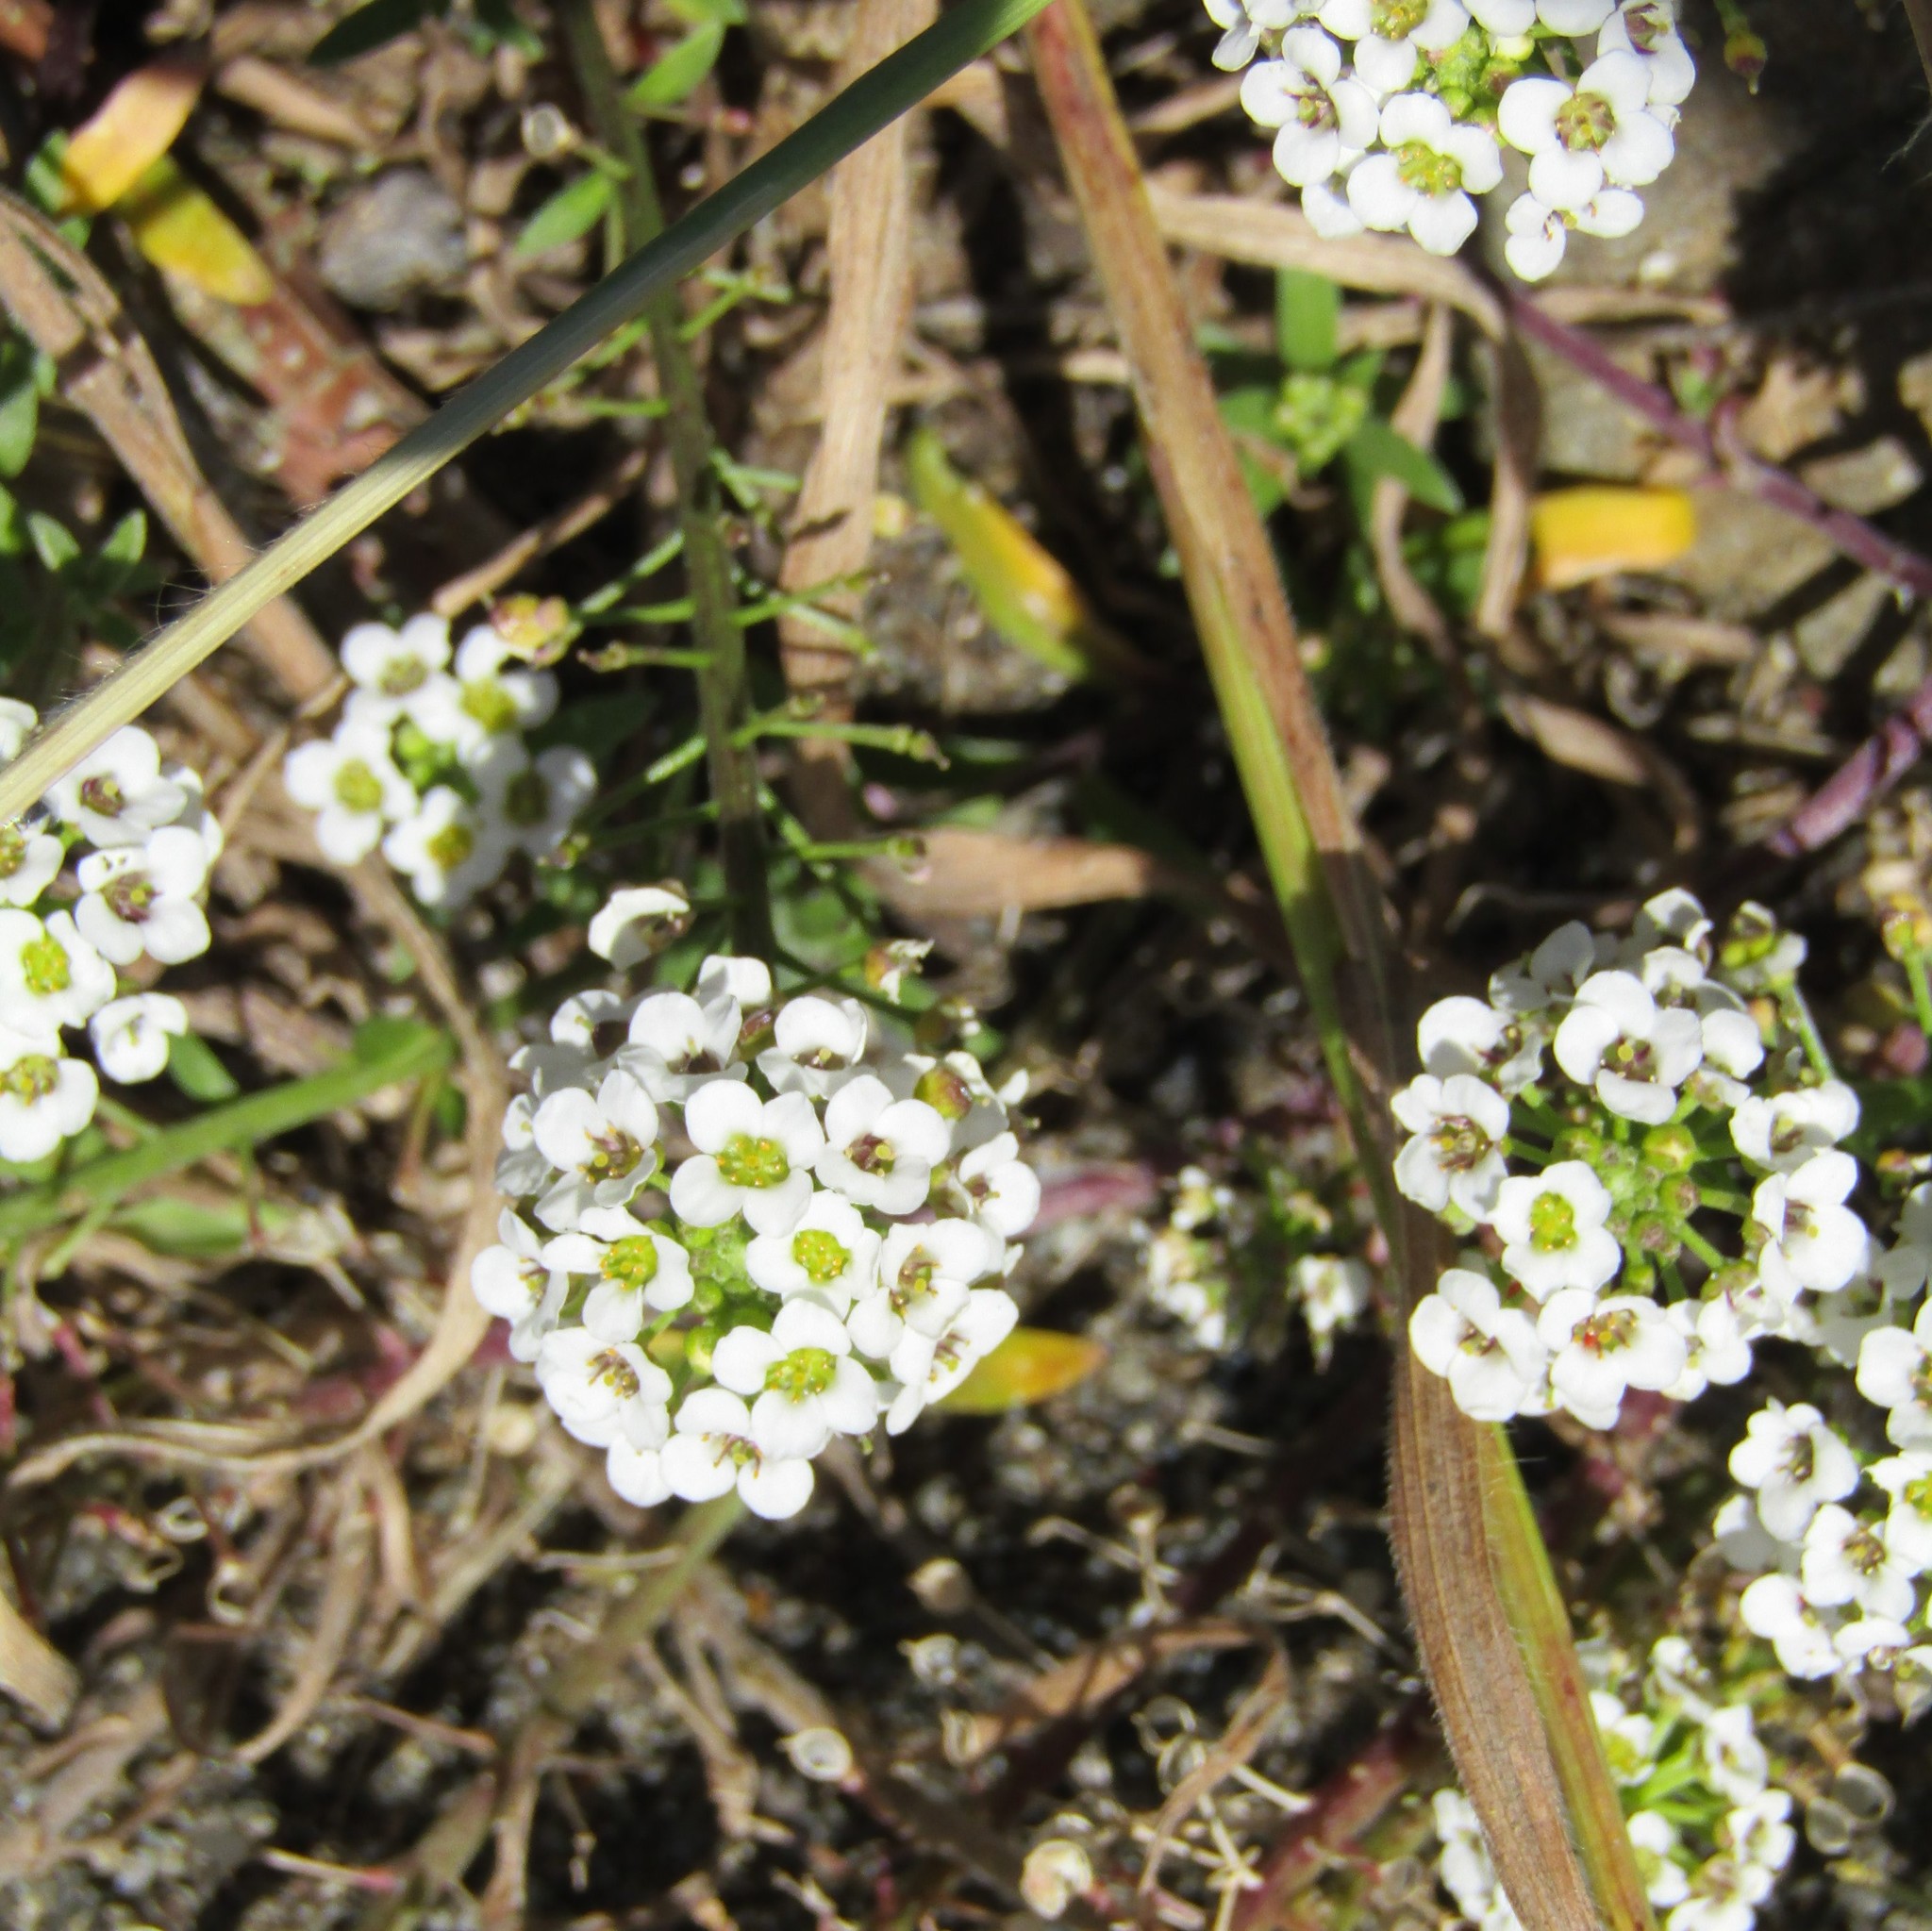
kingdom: Plantae
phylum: Tracheophyta
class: Magnoliopsida
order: Brassicales
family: Brassicaceae
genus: Lobularia
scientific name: Lobularia maritima
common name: Sweet alison
